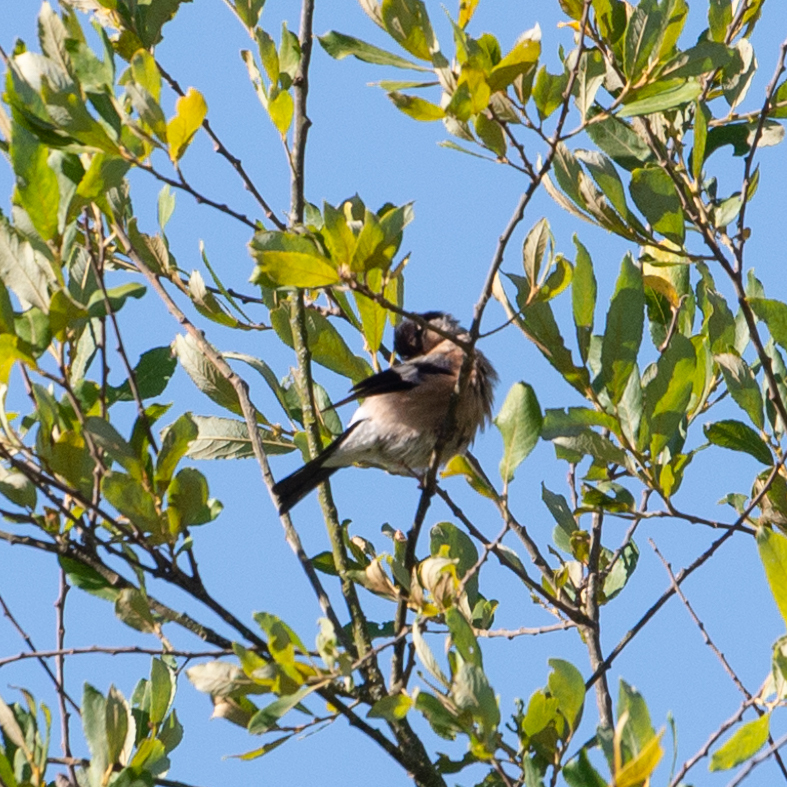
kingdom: Animalia
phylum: Chordata
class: Aves
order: Passeriformes
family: Fringillidae
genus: Pyrrhula
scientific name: Pyrrhula pyrrhula
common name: Eurasian bullfinch
